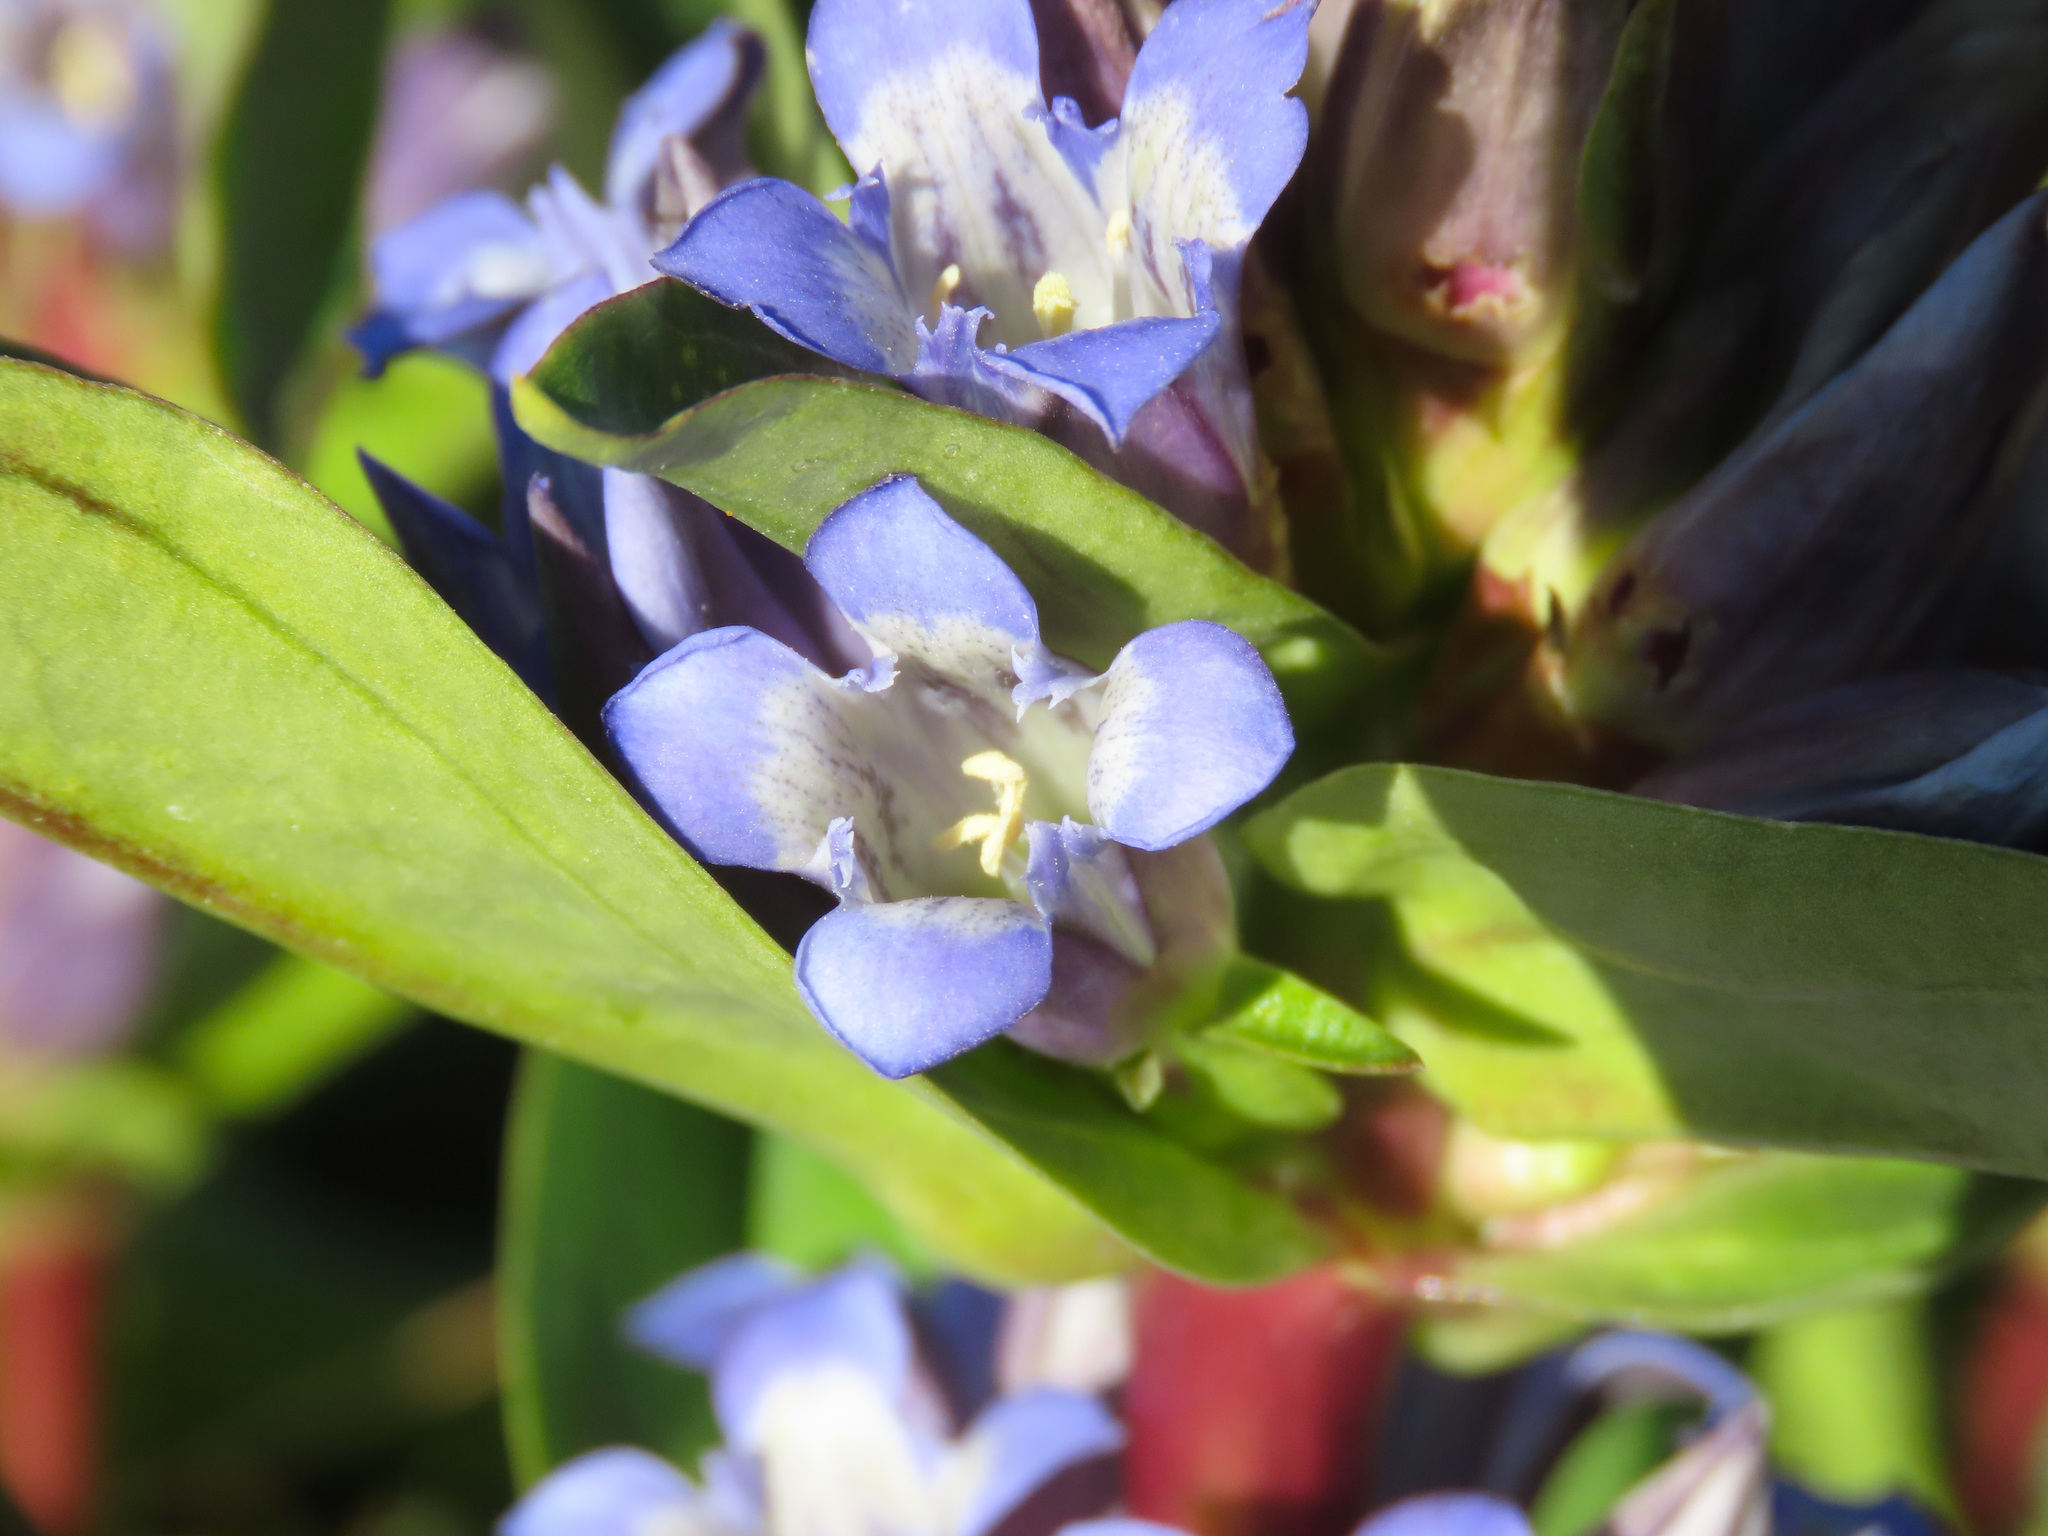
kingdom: Plantae
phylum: Tracheophyta
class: Magnoliopsida
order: Gentianales
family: Gentianaceae
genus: Gentiana
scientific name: Gentiana cruciata
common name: Cross gentian
